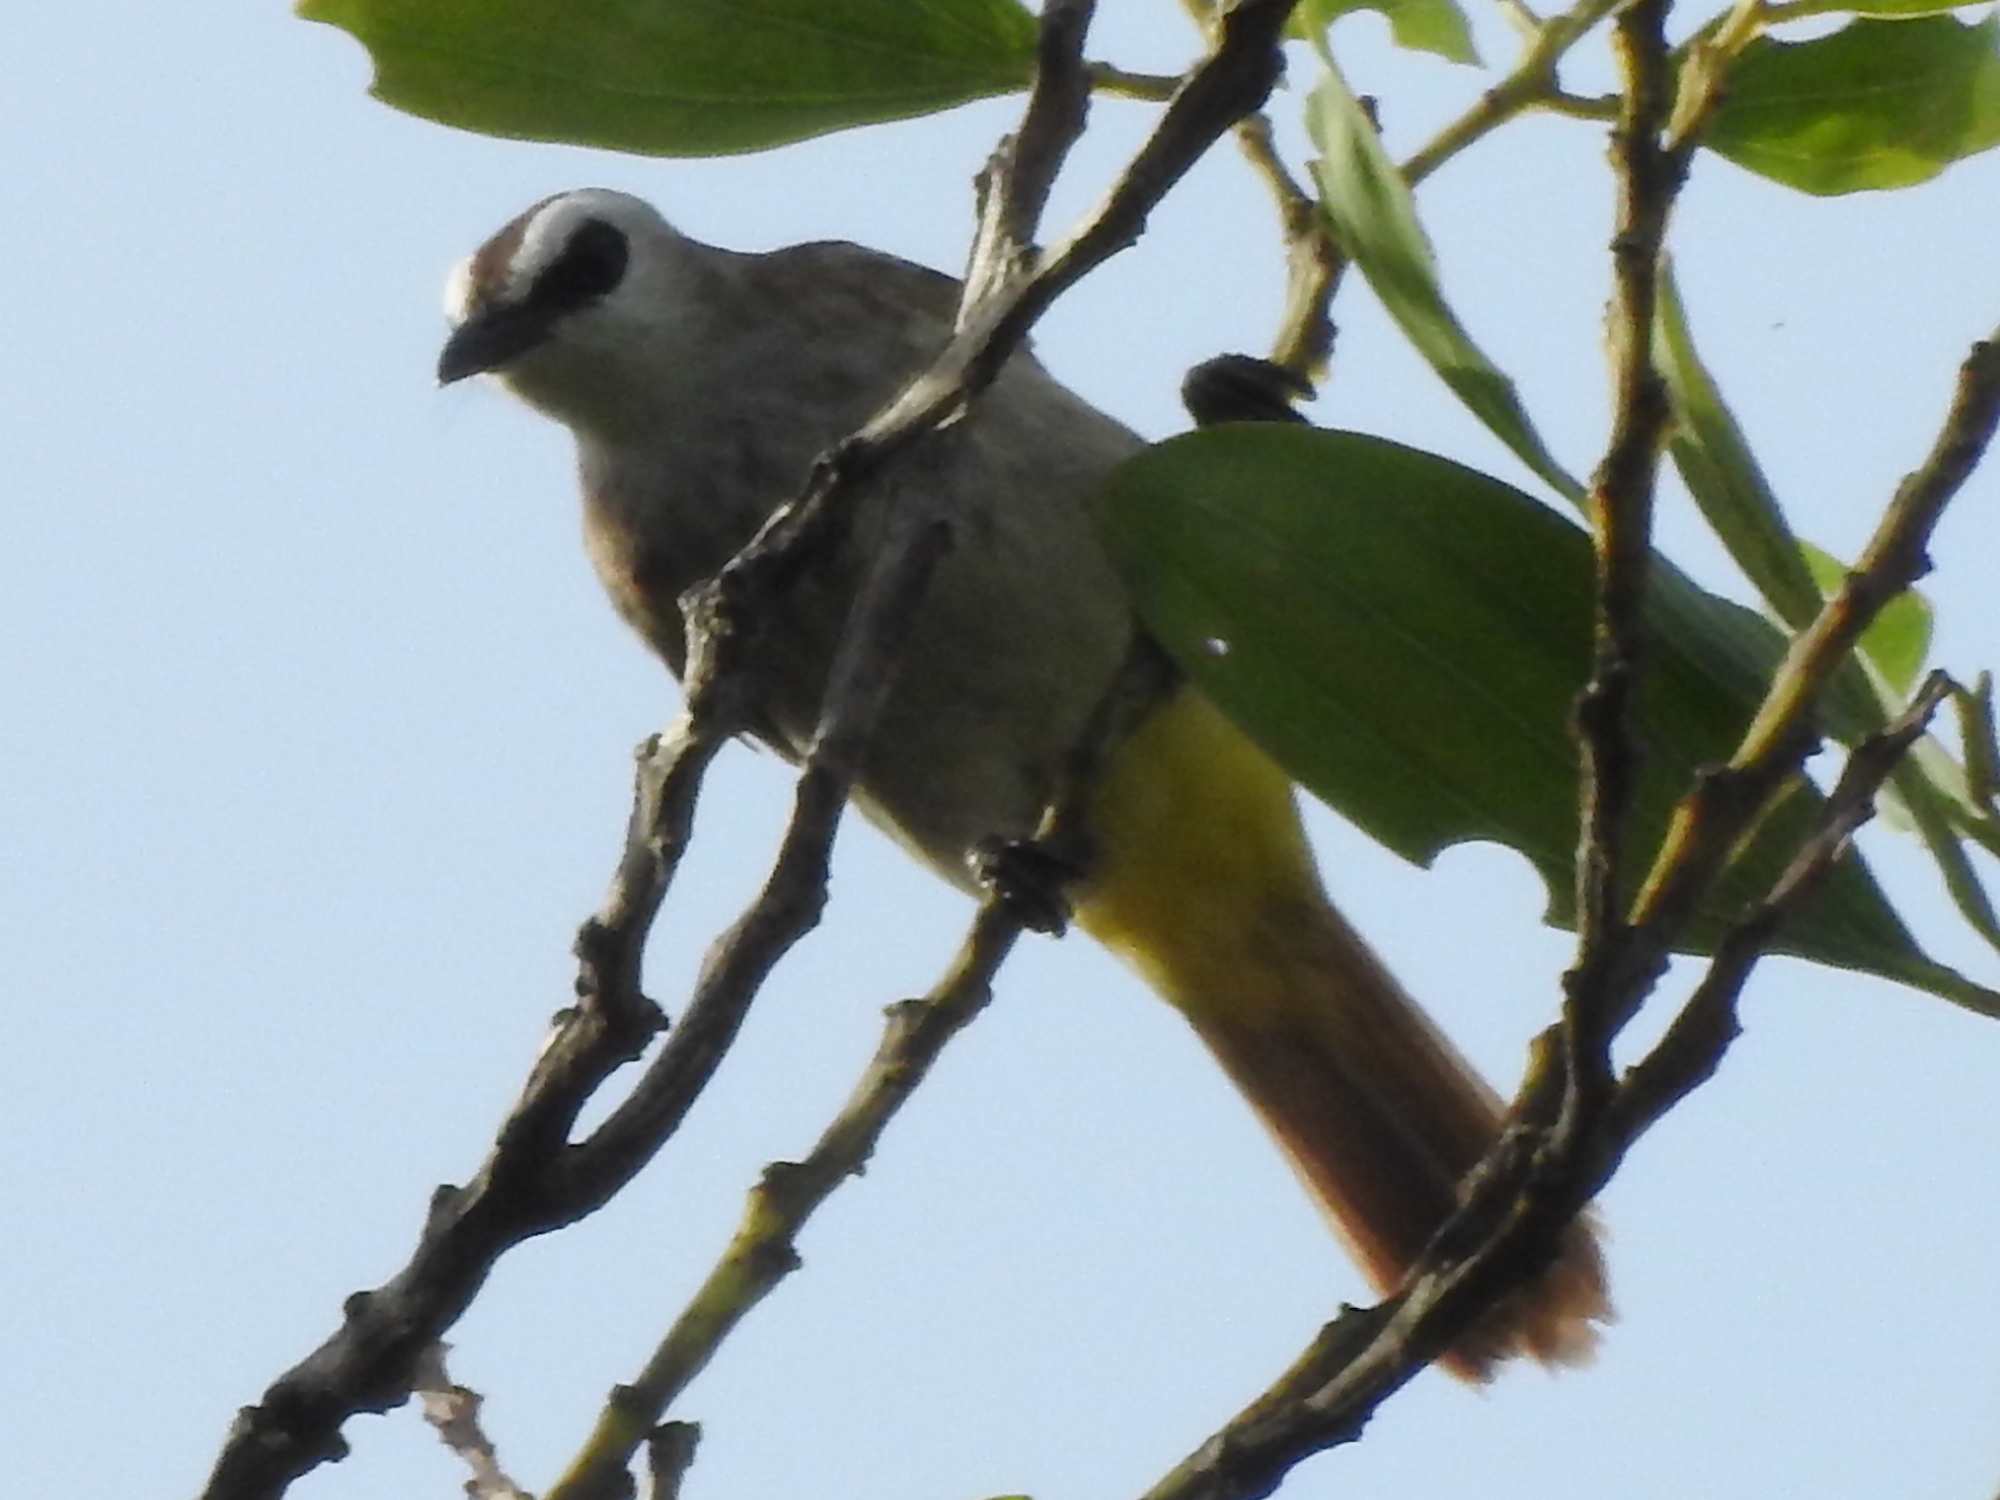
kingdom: Animalia
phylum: Chordata
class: Aves
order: Passeriformes
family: Pycnonotidae
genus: Pycnonotus
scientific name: Pycnonotus goiavier
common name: Yellow-vented bulbul
